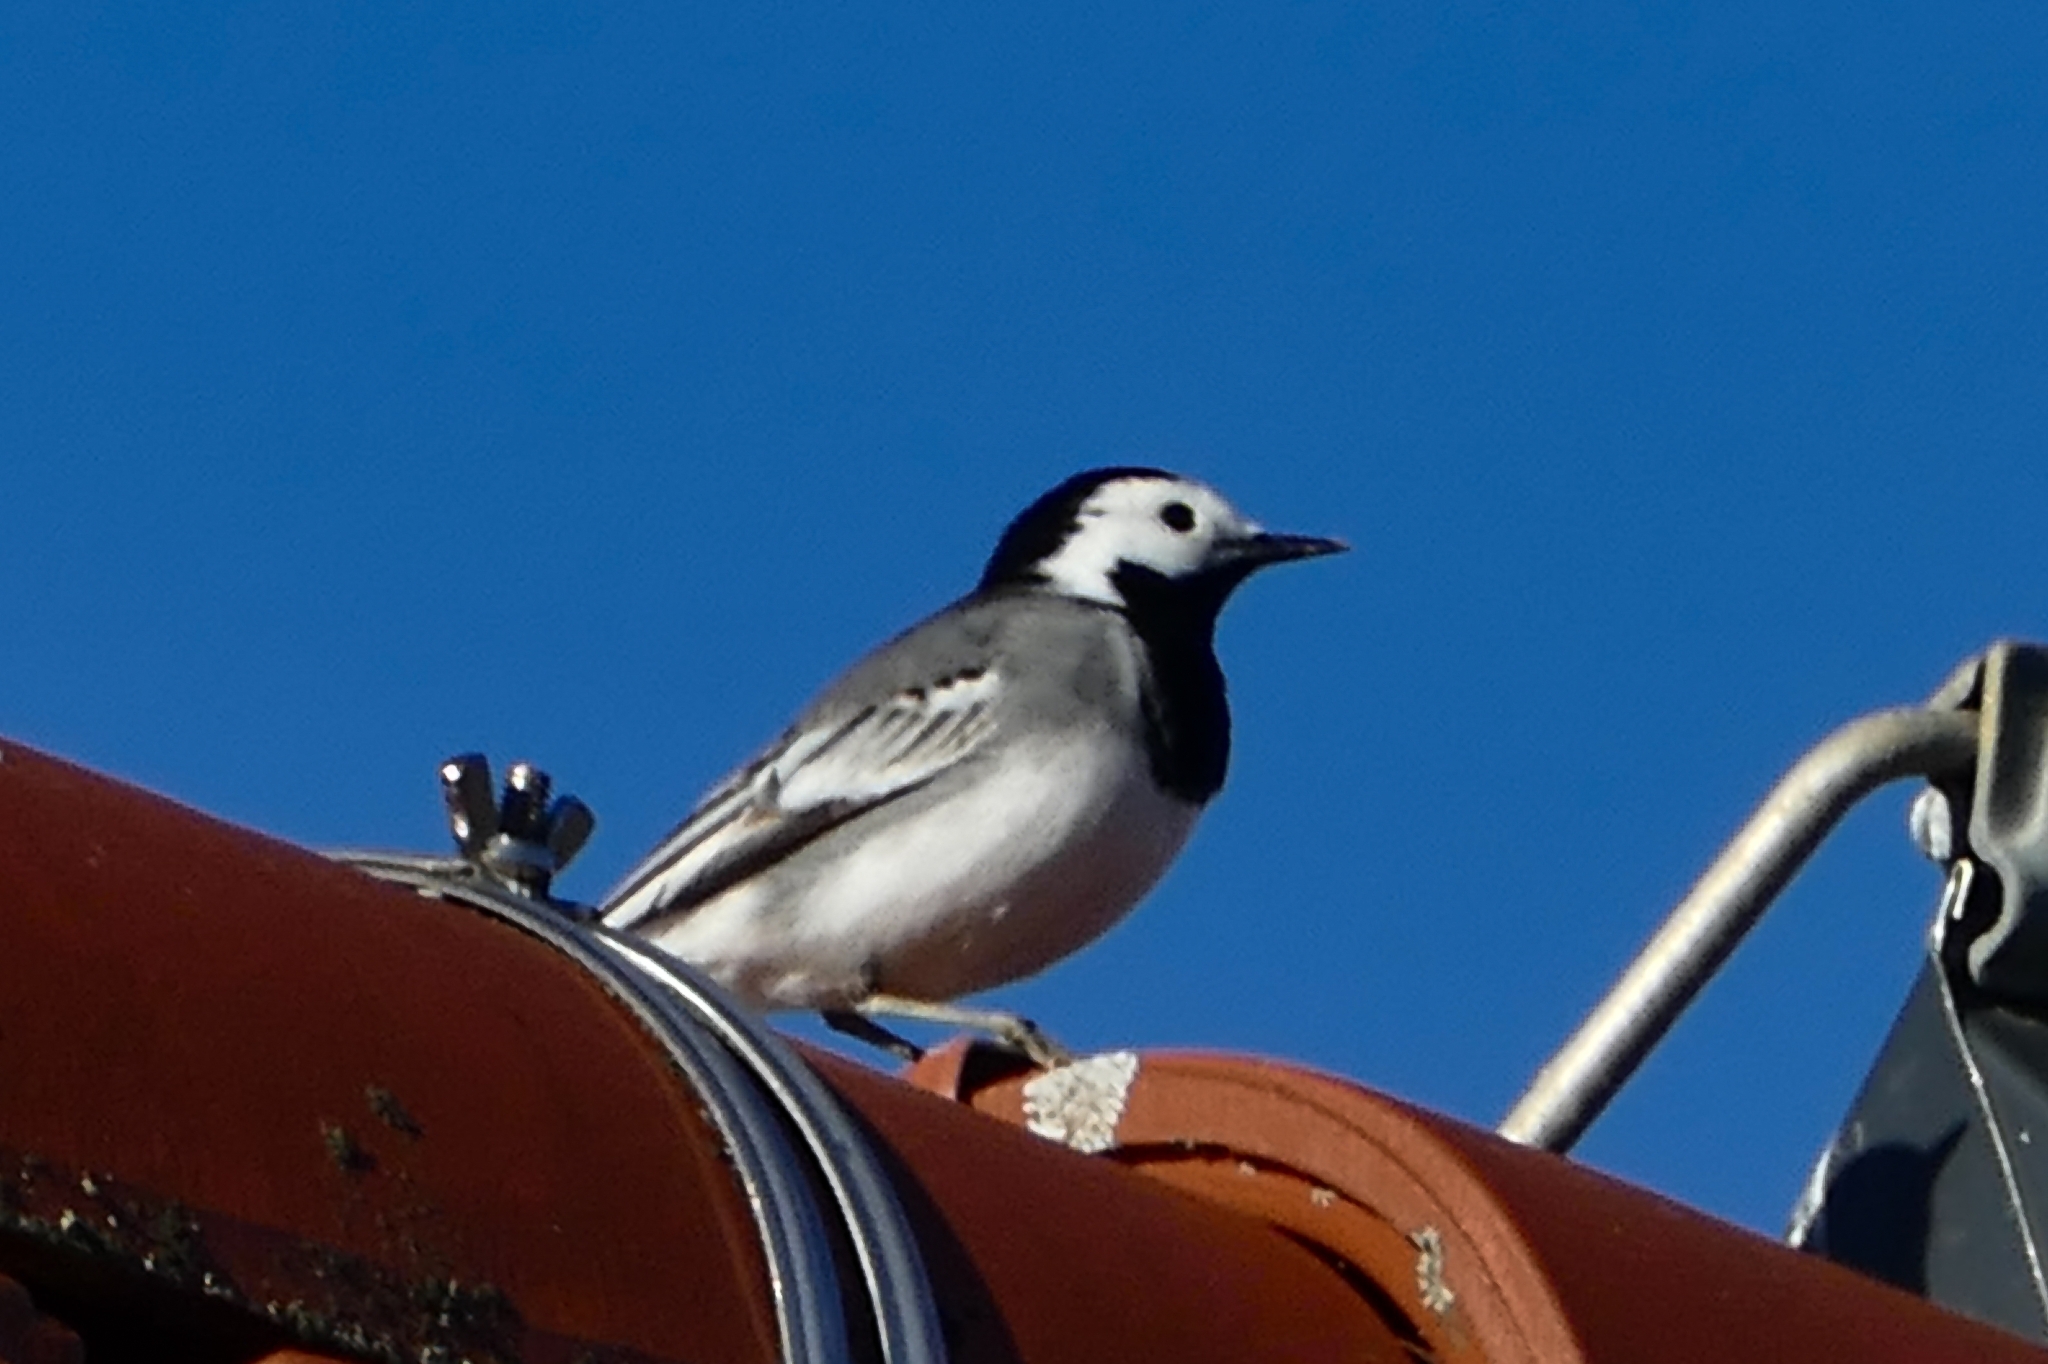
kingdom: Animalia
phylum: Chordata
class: Aves
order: Passeriformes
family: Motacillidae
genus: Motacilla
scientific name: Motacilla alba
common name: White wagtail
